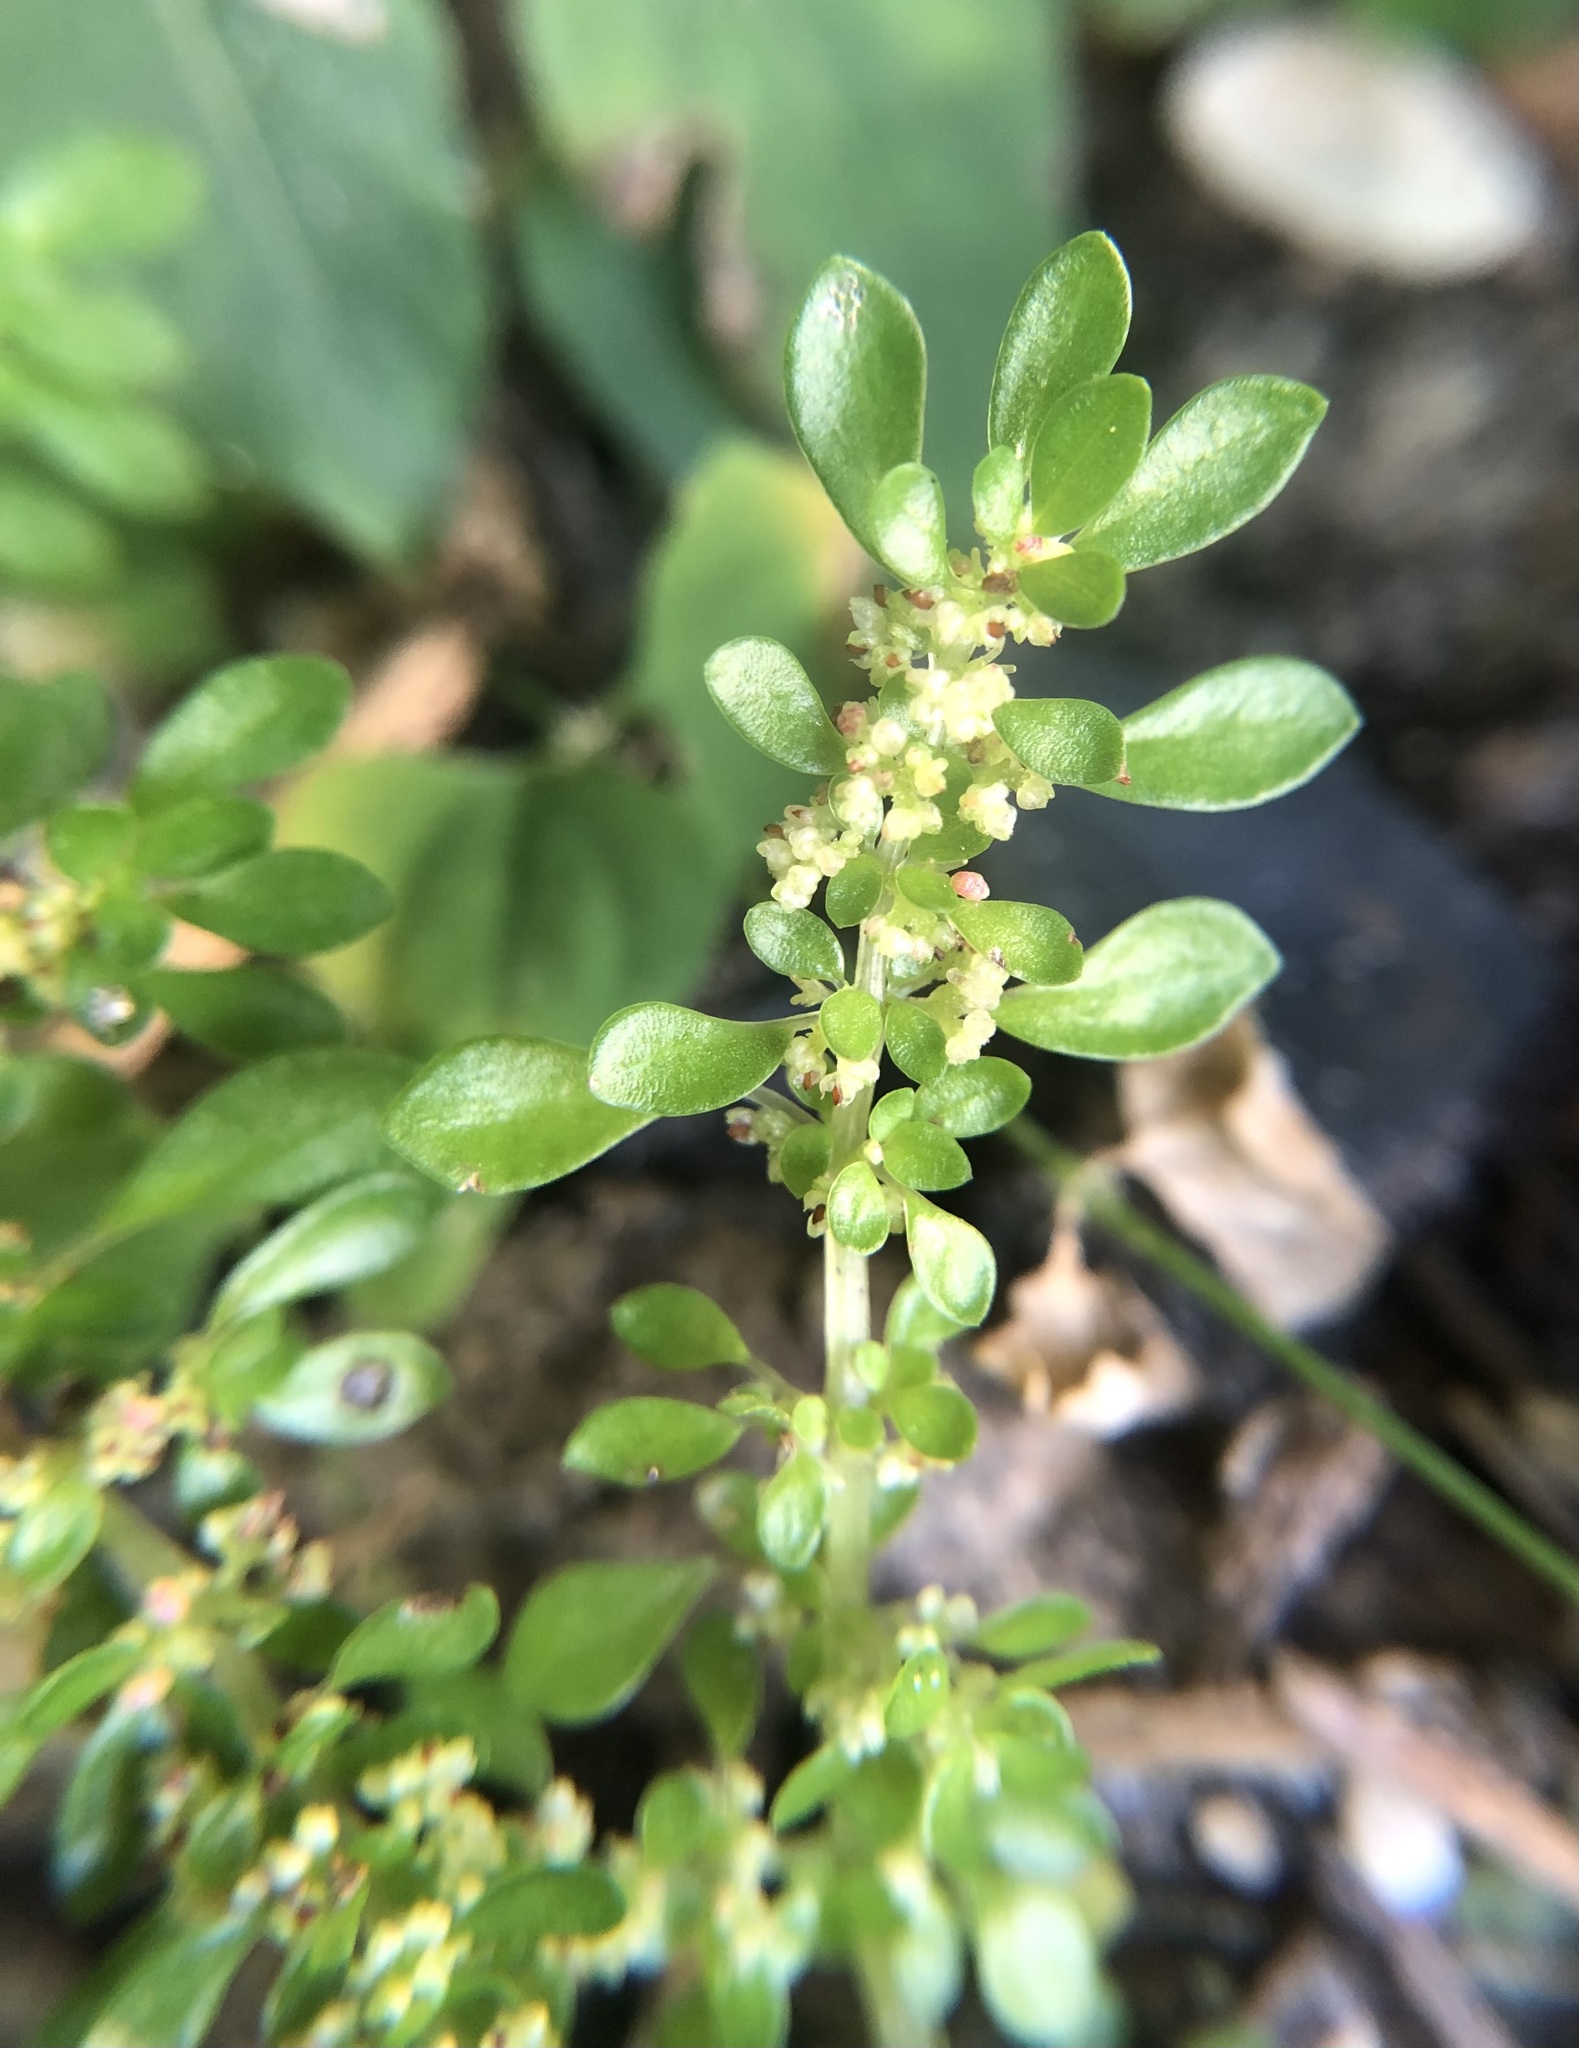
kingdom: Plantae
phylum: Tracheophyta
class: Magnoliopsida
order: Rosales
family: Urticaceae
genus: Pilea
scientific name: Pilea microphylla
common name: Artillery-plant
